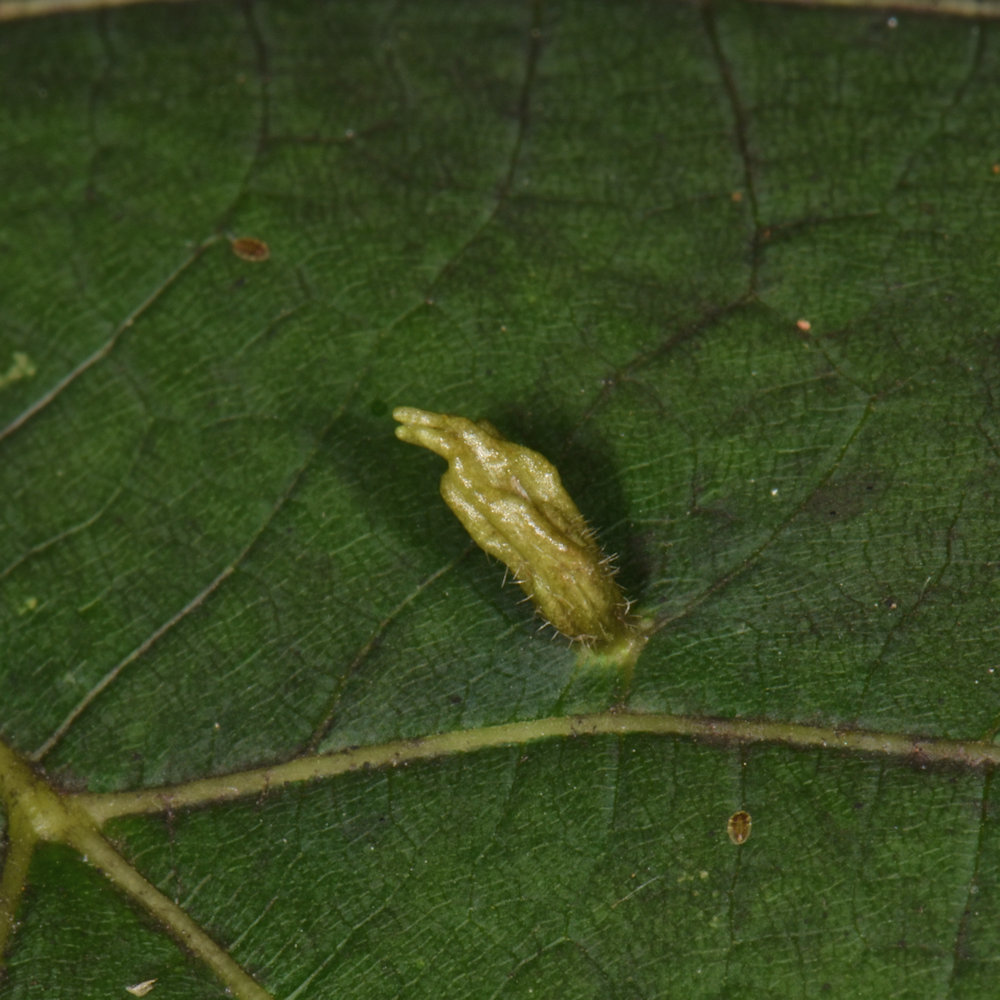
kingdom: Animalia
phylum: Arthropoda
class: Arachnida
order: Trombidiformes
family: Eriophyidae
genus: Eriophyes
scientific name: Eriophyes tiliae
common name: Red nail gall mite
